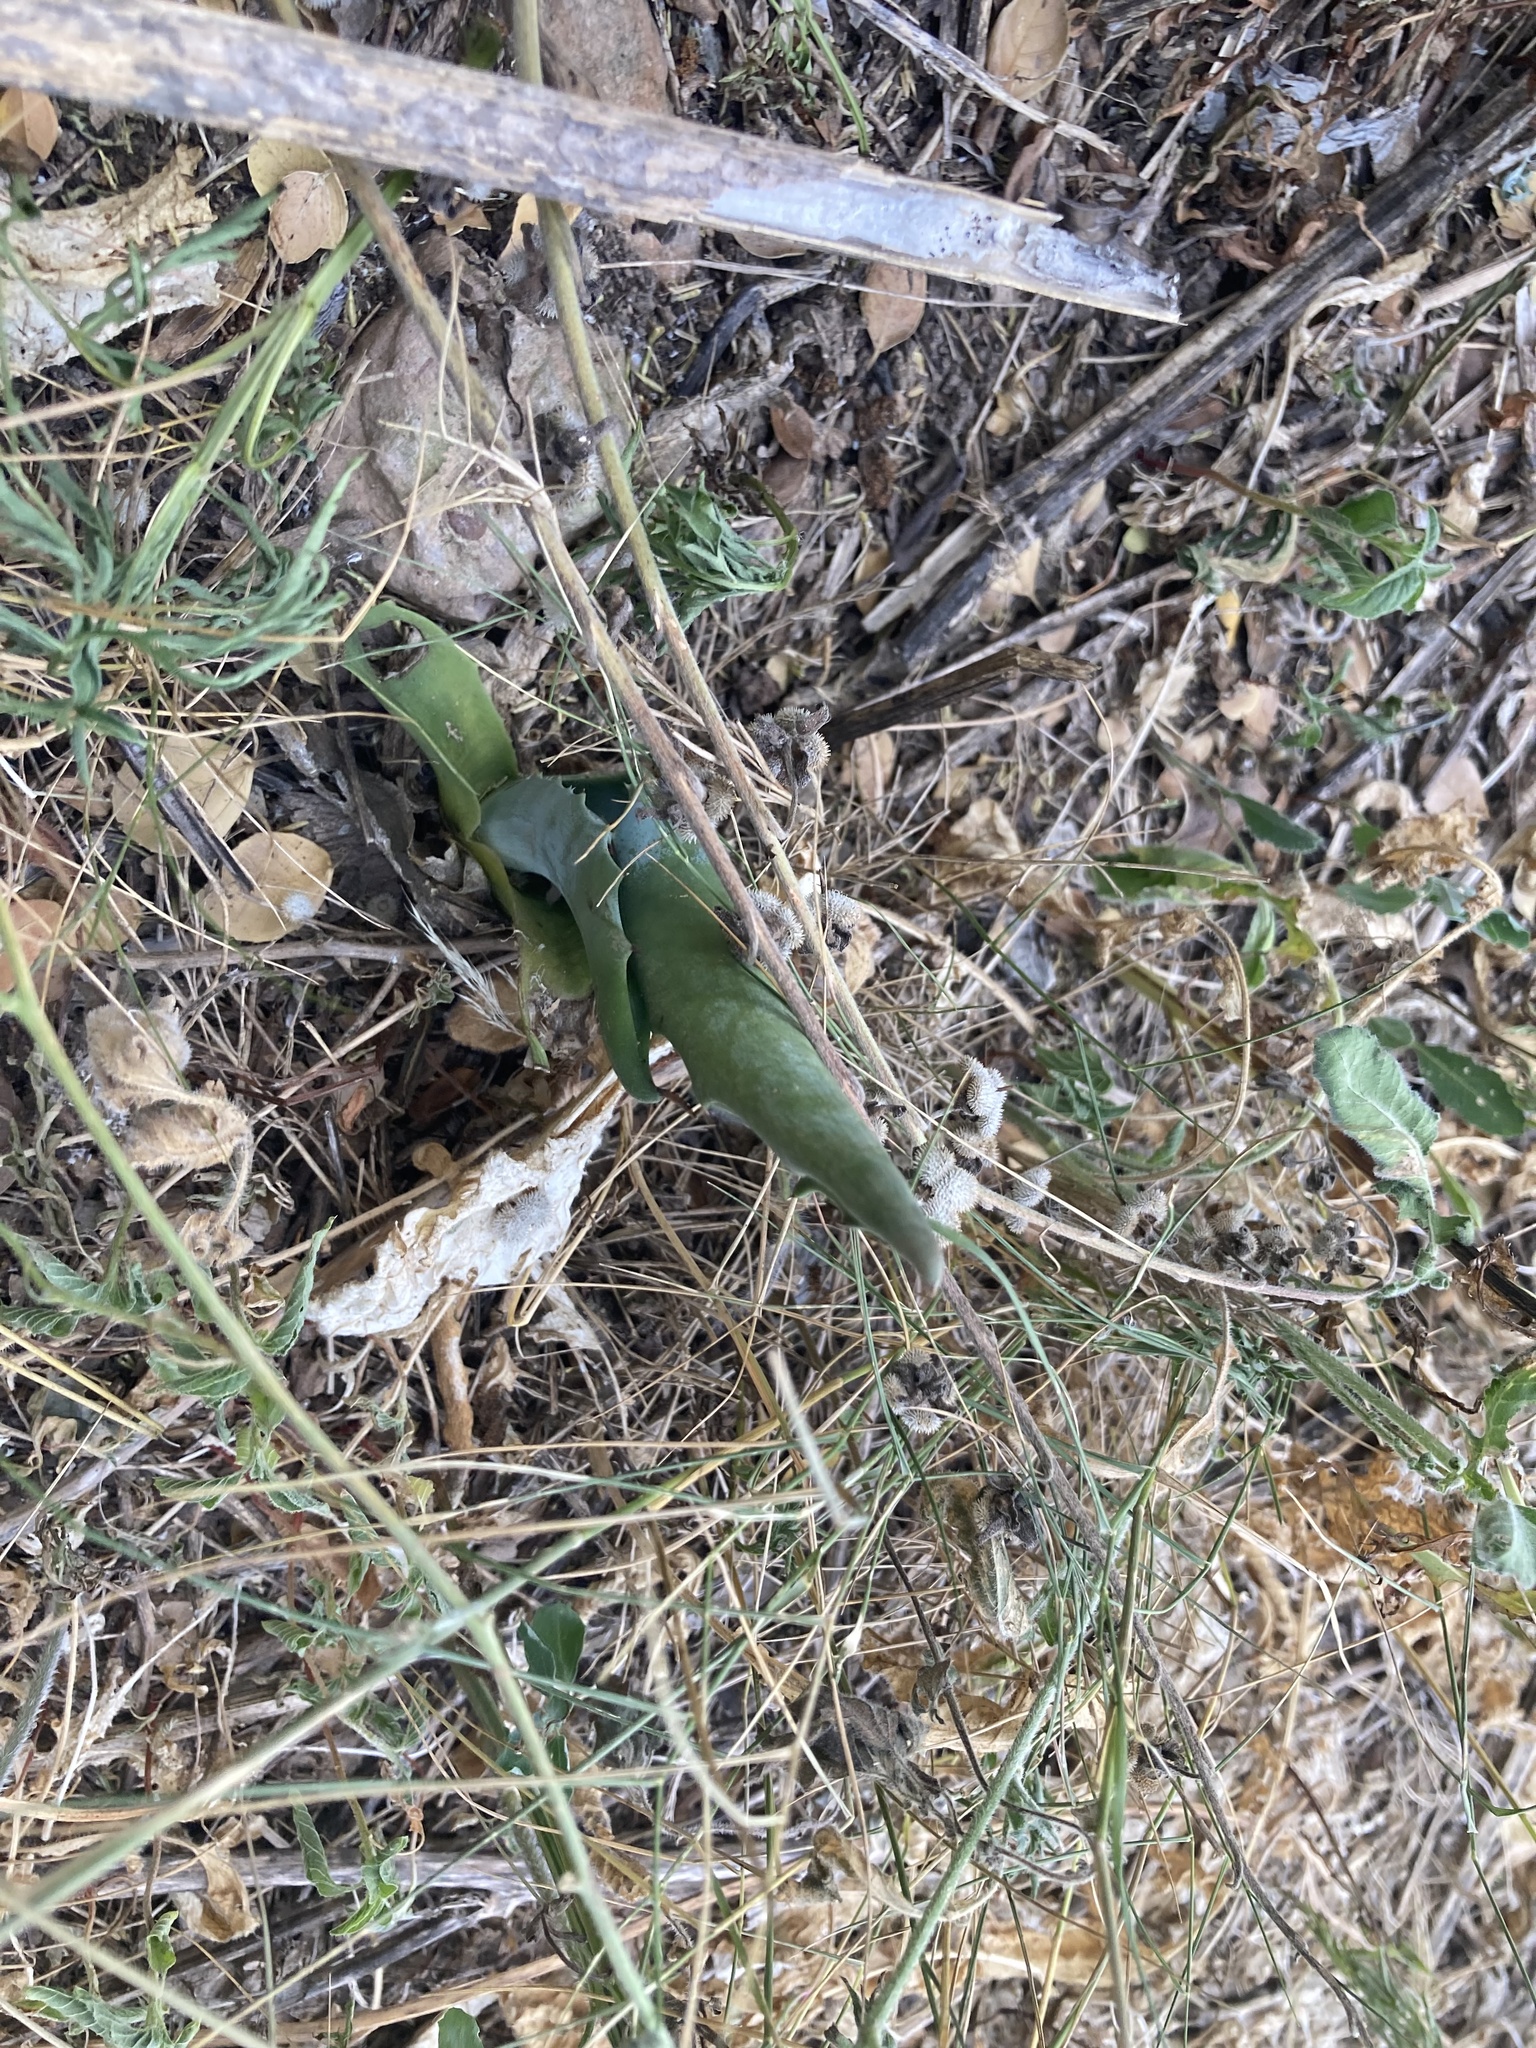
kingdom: Plantae
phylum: Tracheophyta
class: Liliopsida
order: Asparagales
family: Asparagaceae
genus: Agave
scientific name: Agave americana
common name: Centuryplant
